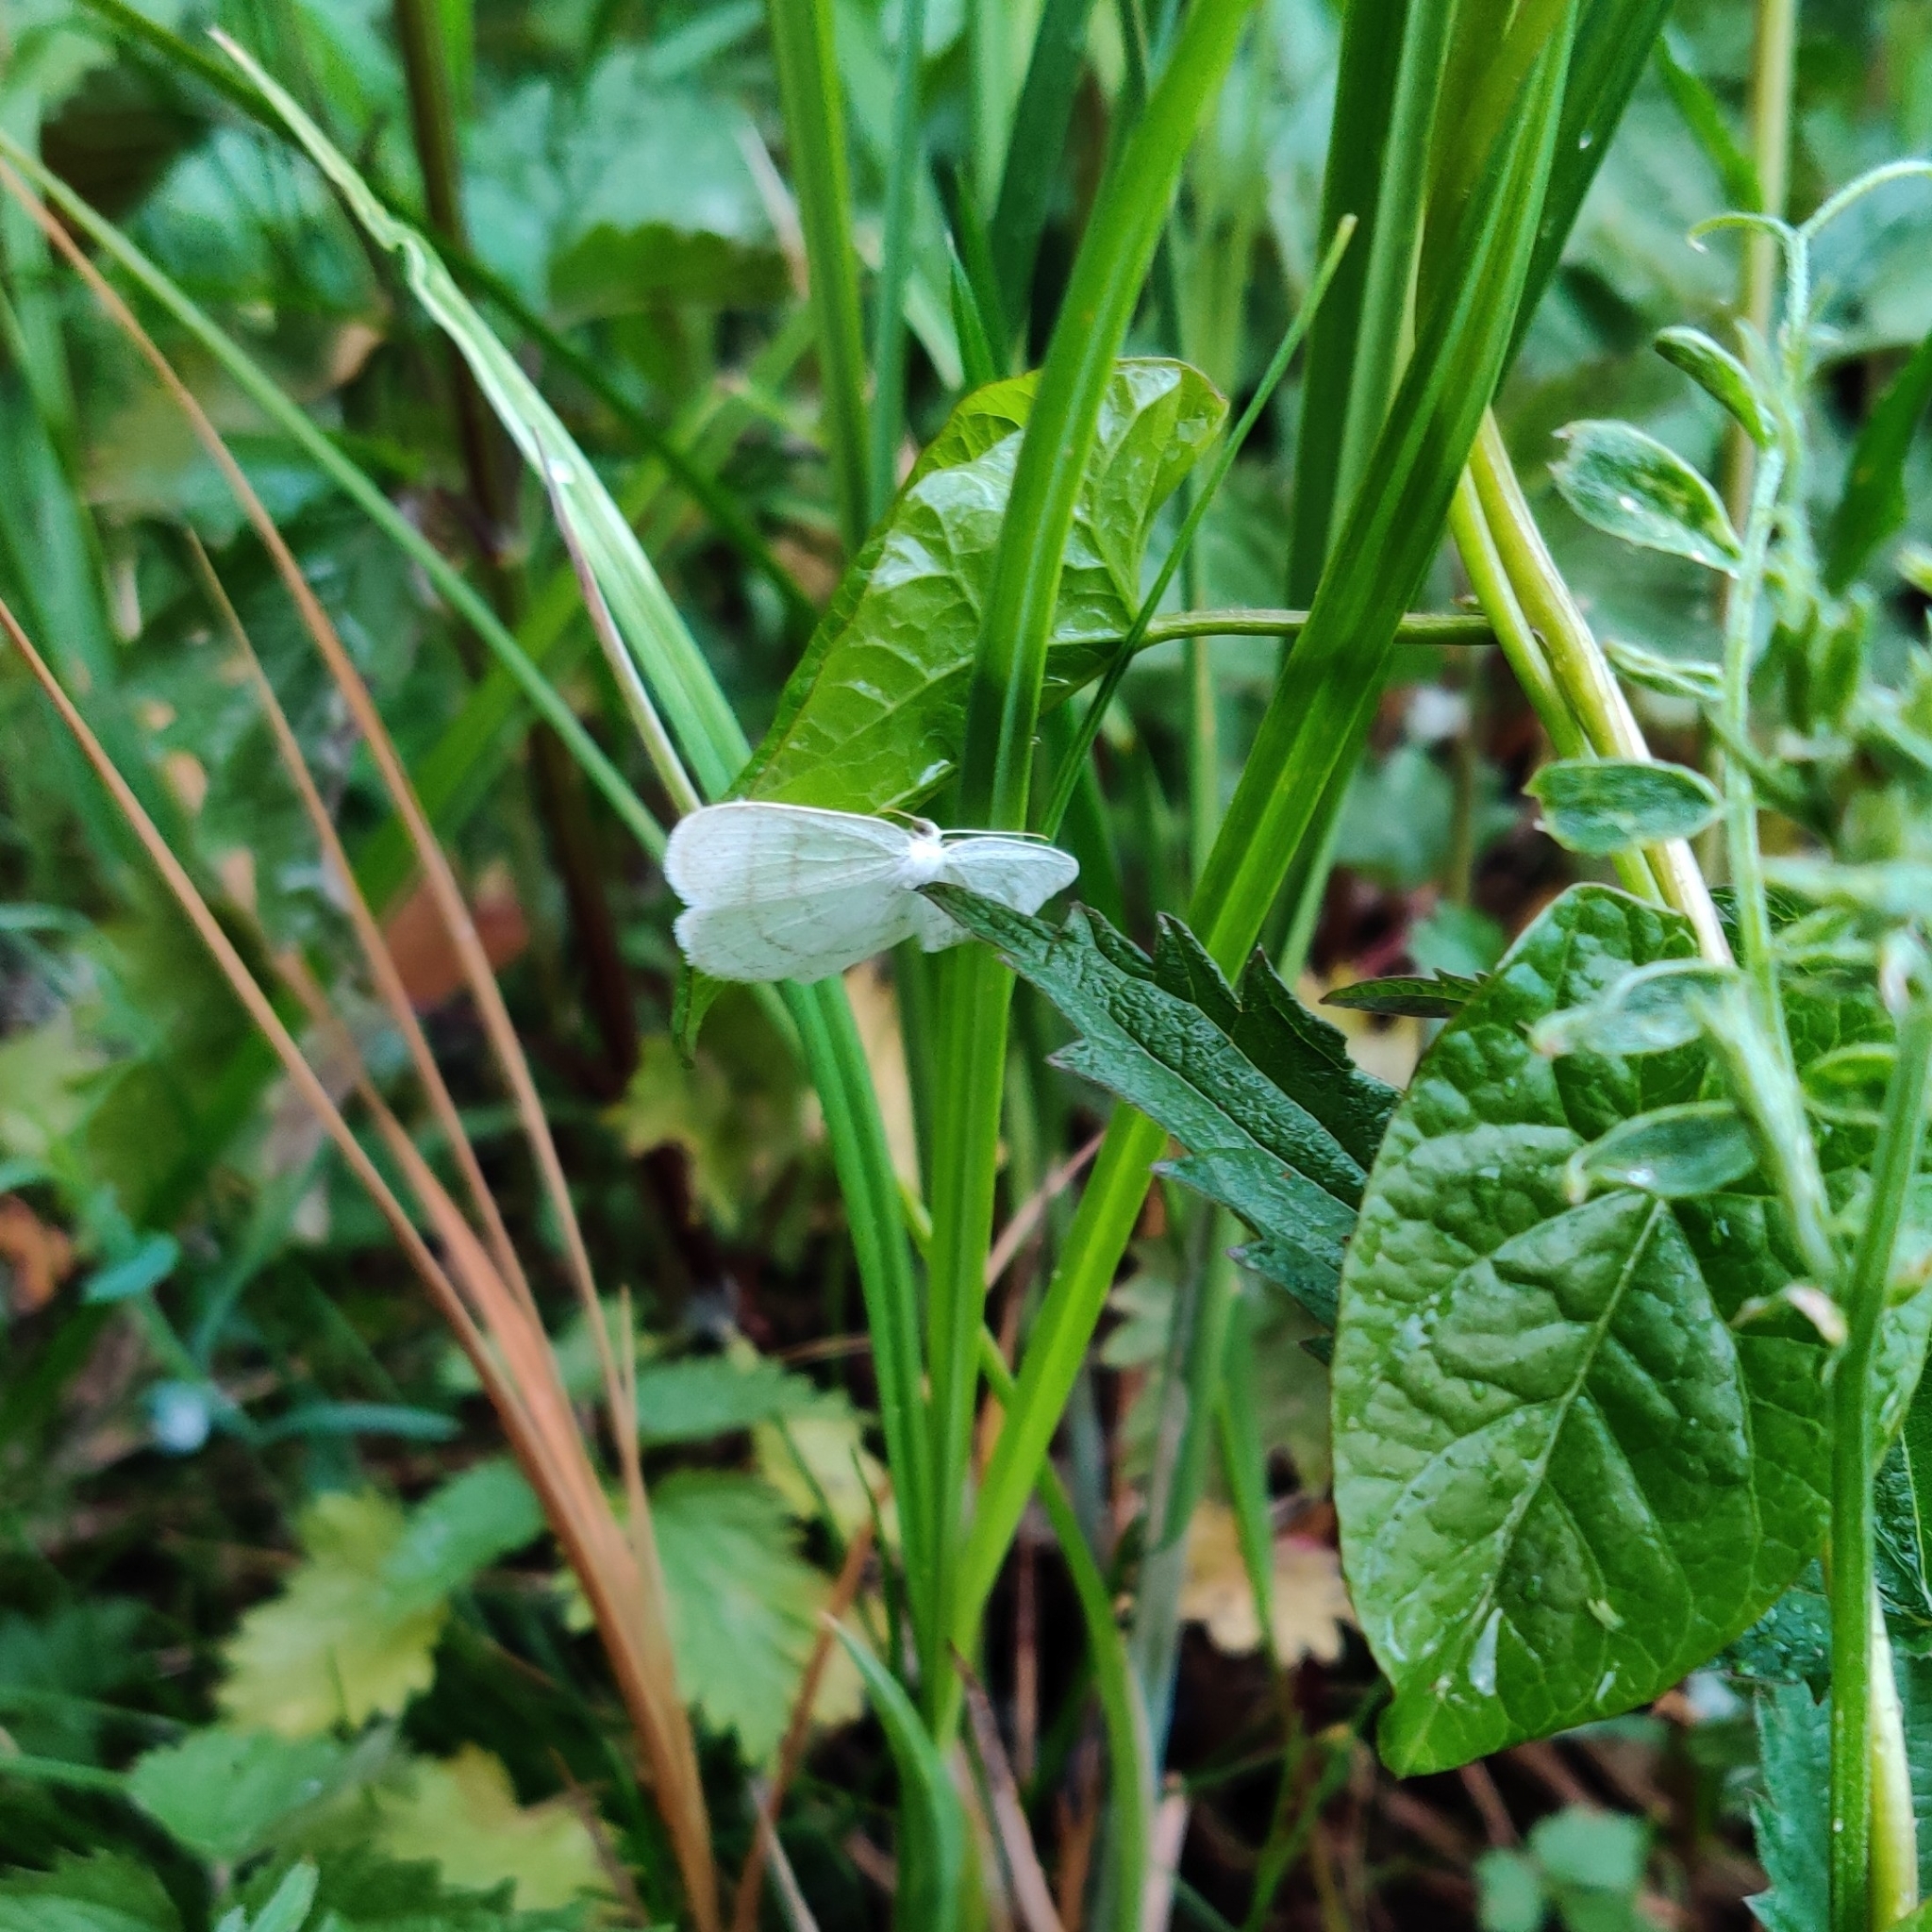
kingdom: Animalia
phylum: Arthropoda
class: Insecta
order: Lepidoptera
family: Geometridae
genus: Cabera
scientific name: Cabera pusaria
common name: Common white wave
